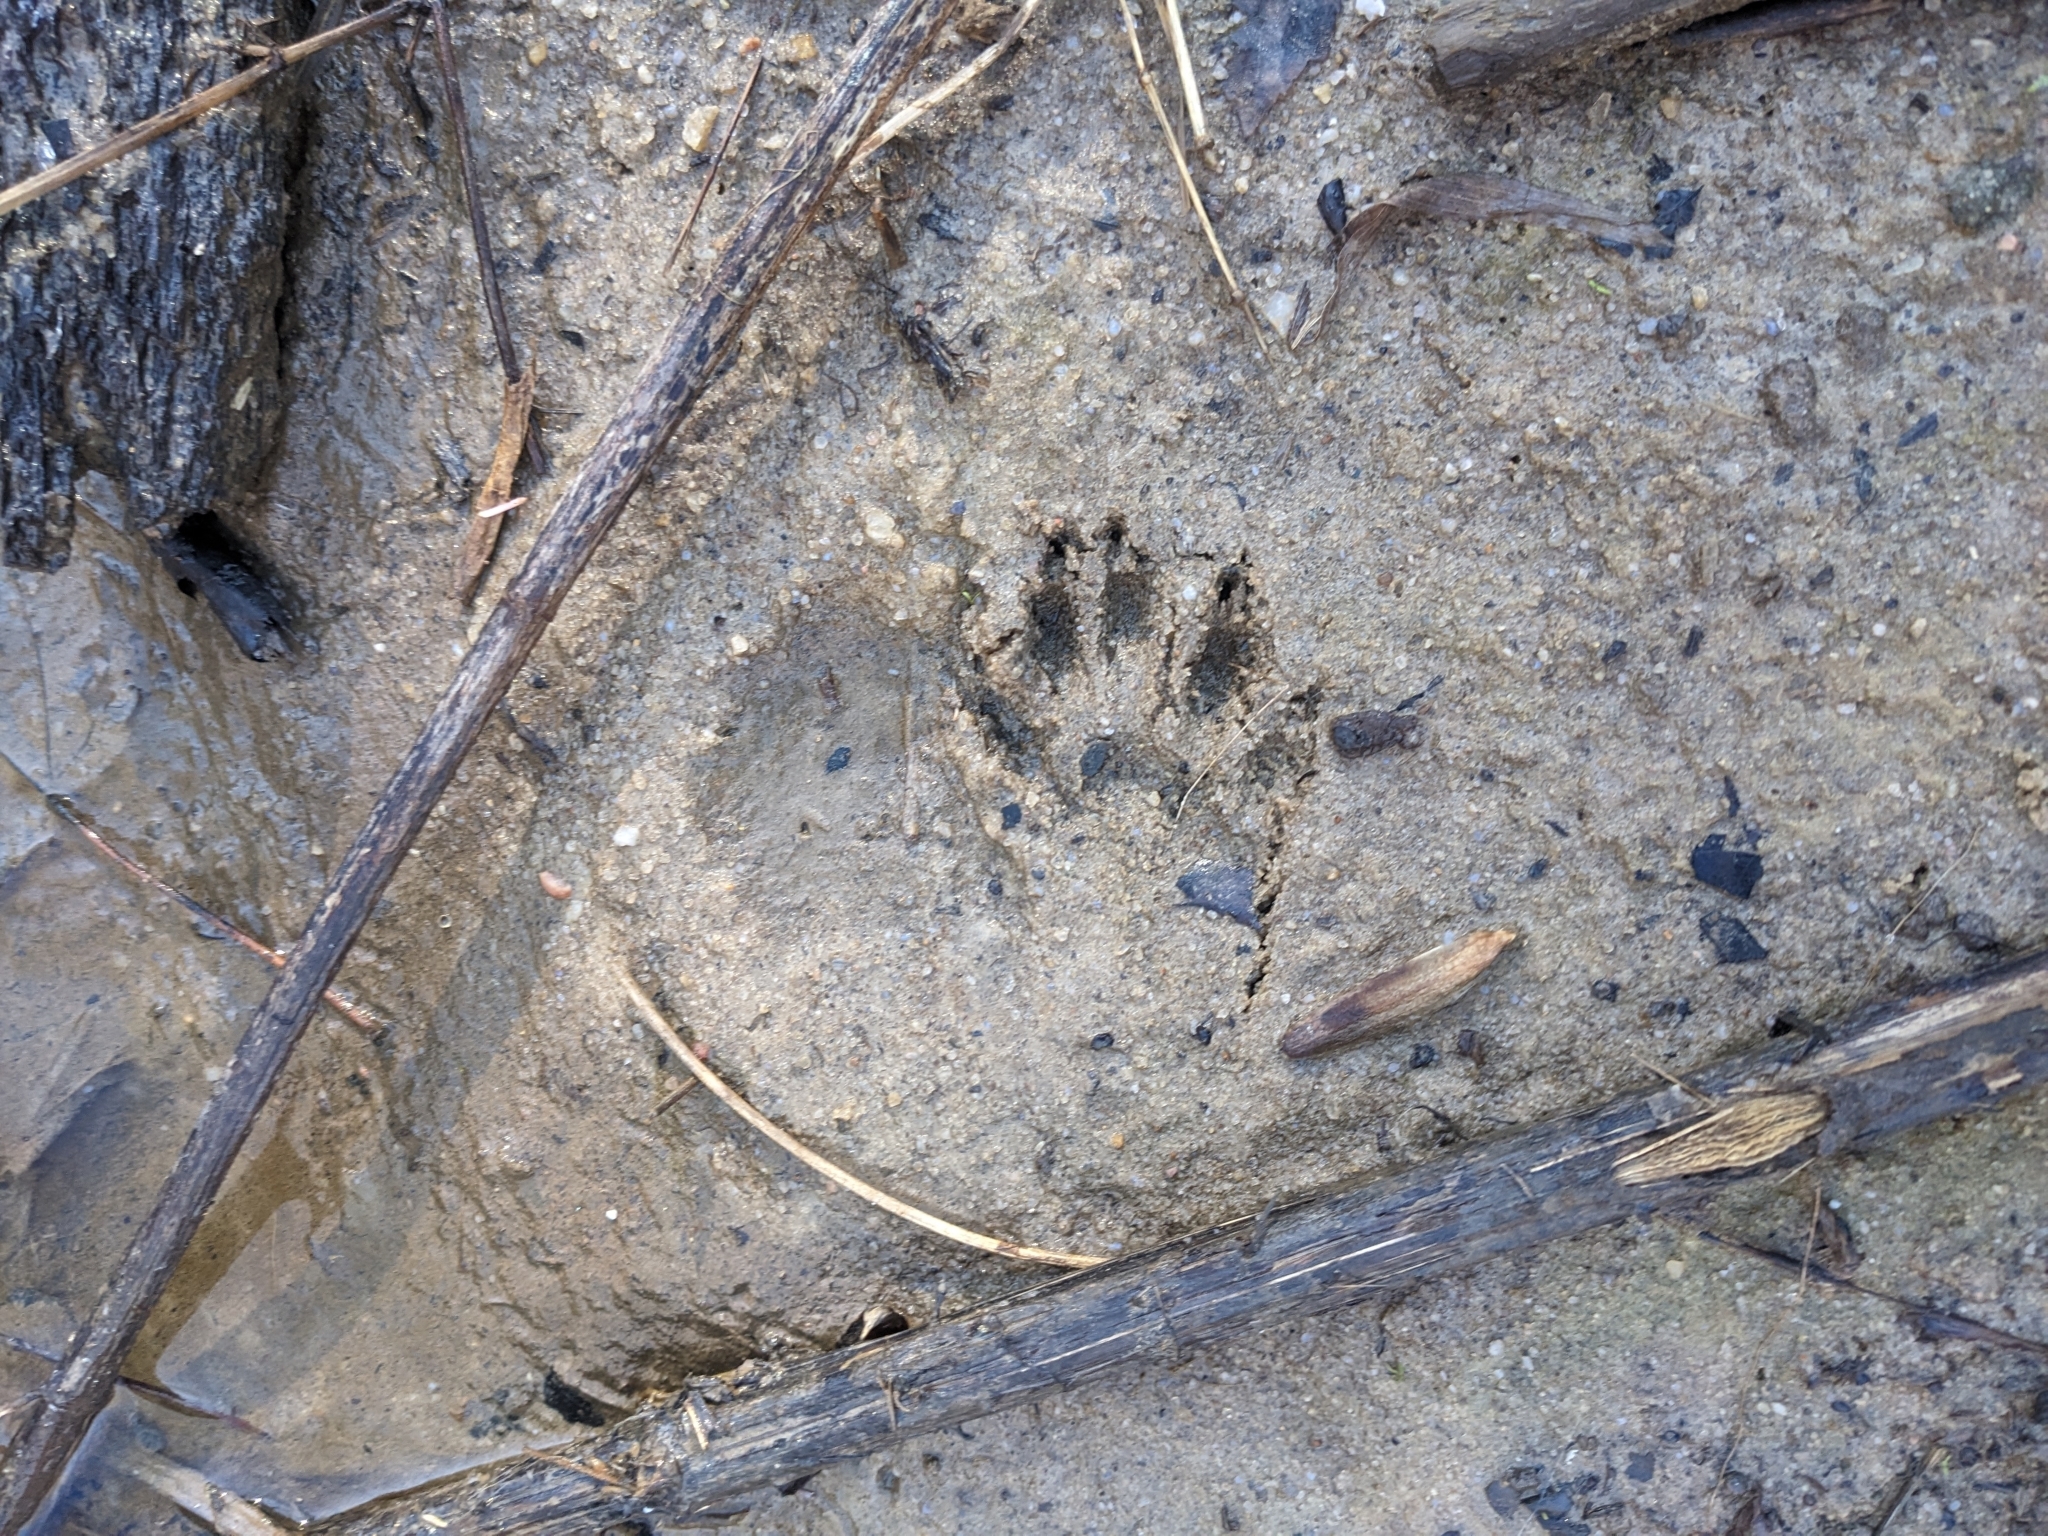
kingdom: Animalia
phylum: Chordata
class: Mammalia
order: Carnivora
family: Procyonidae
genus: Procyon
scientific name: Procyon lotor
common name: Raccoon
